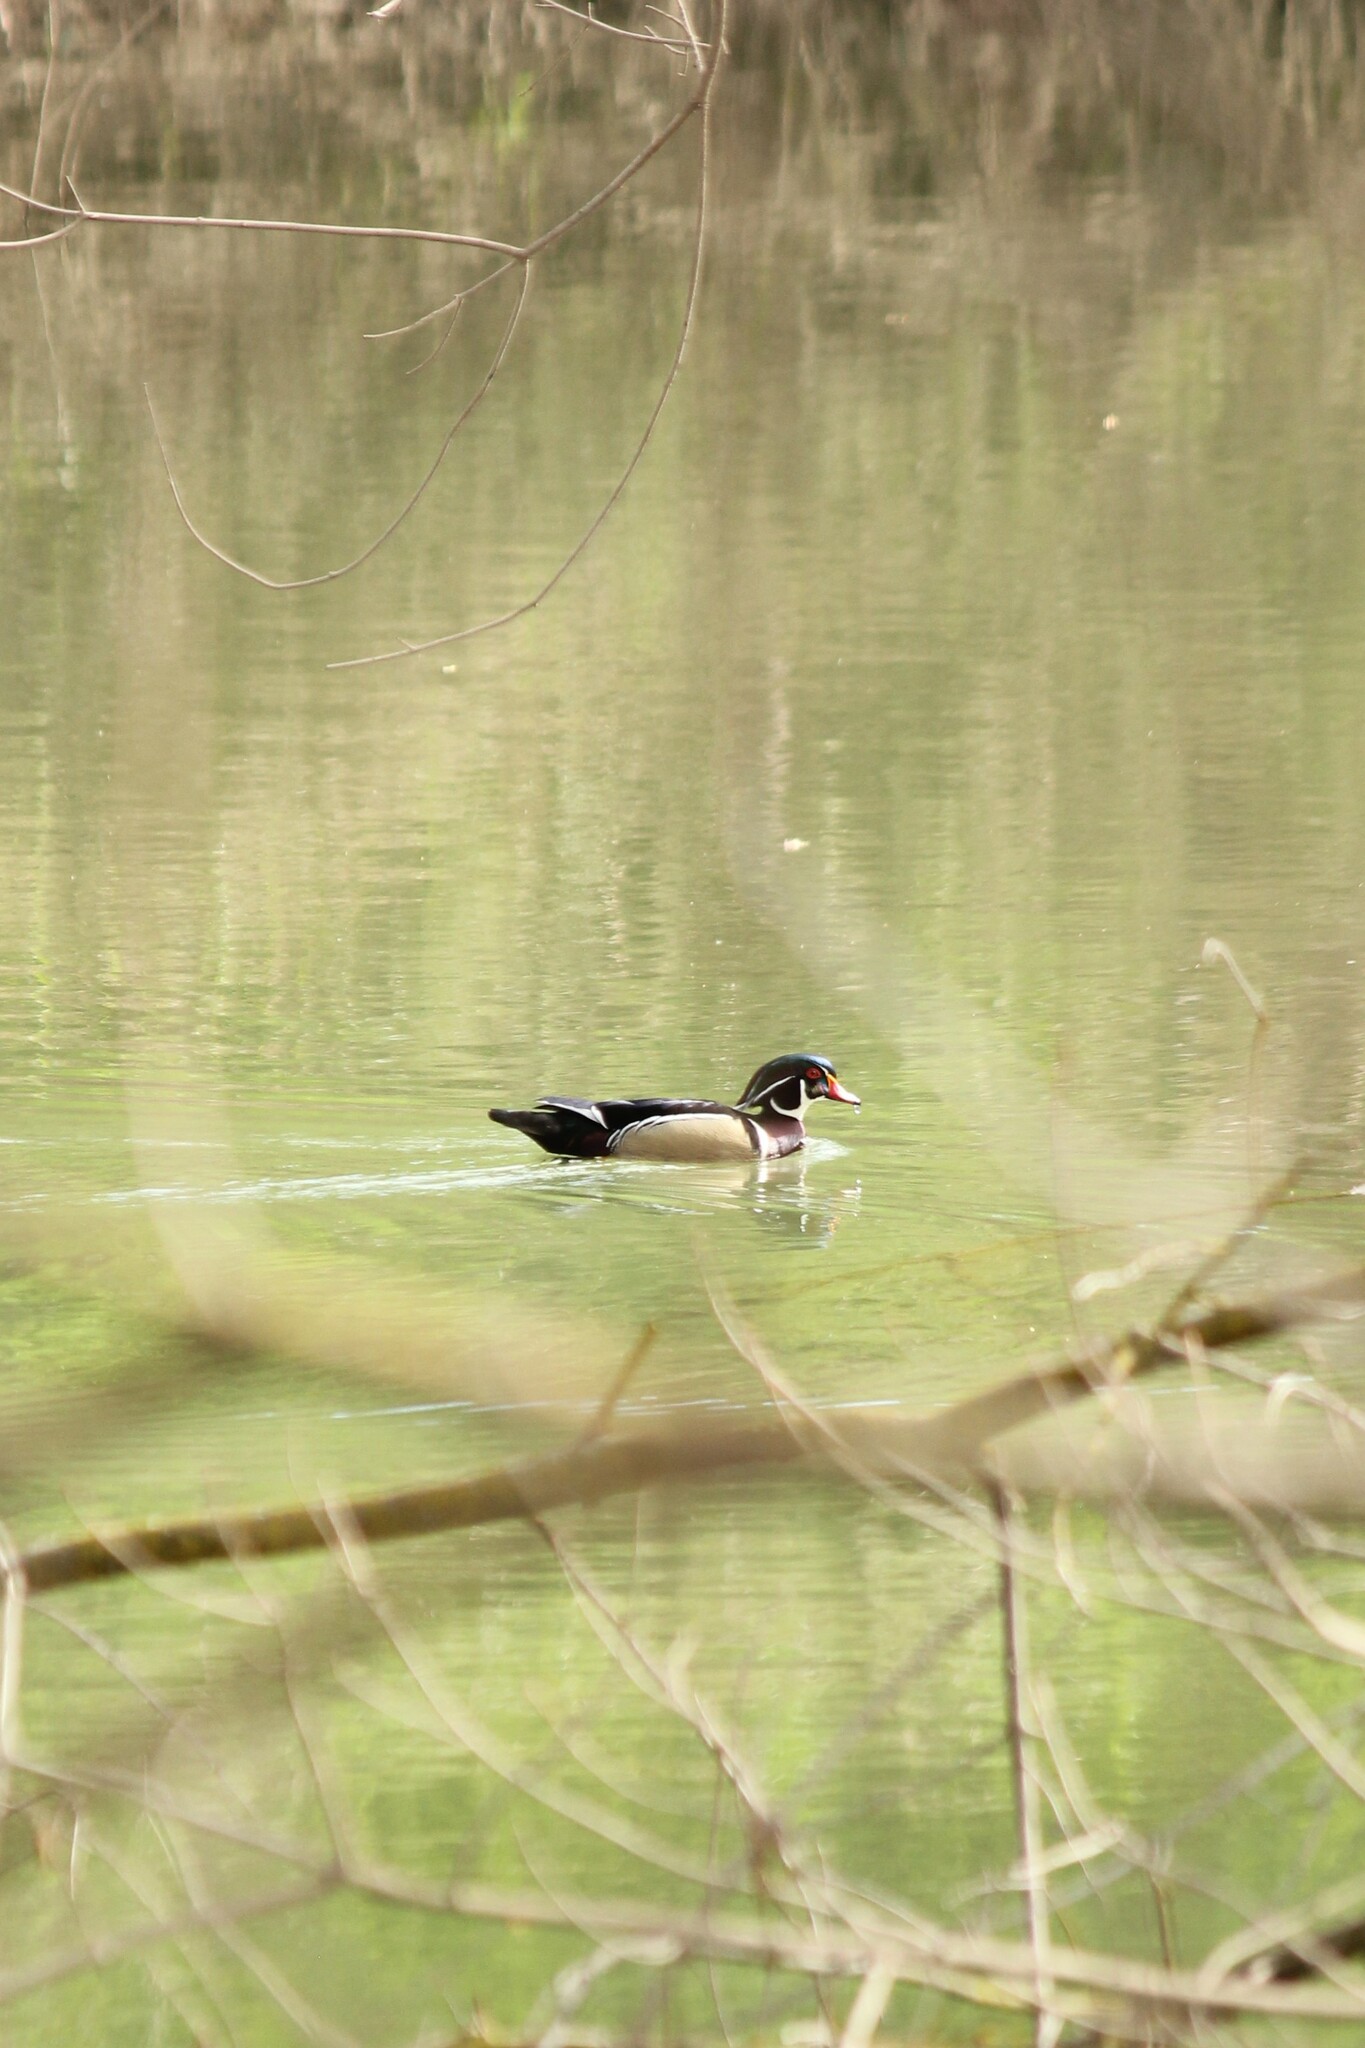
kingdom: Animalia
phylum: Chordata
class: Aves
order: Anseriformes
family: Anatidae
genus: Aix
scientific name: Aix sponsa
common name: Wood duck
